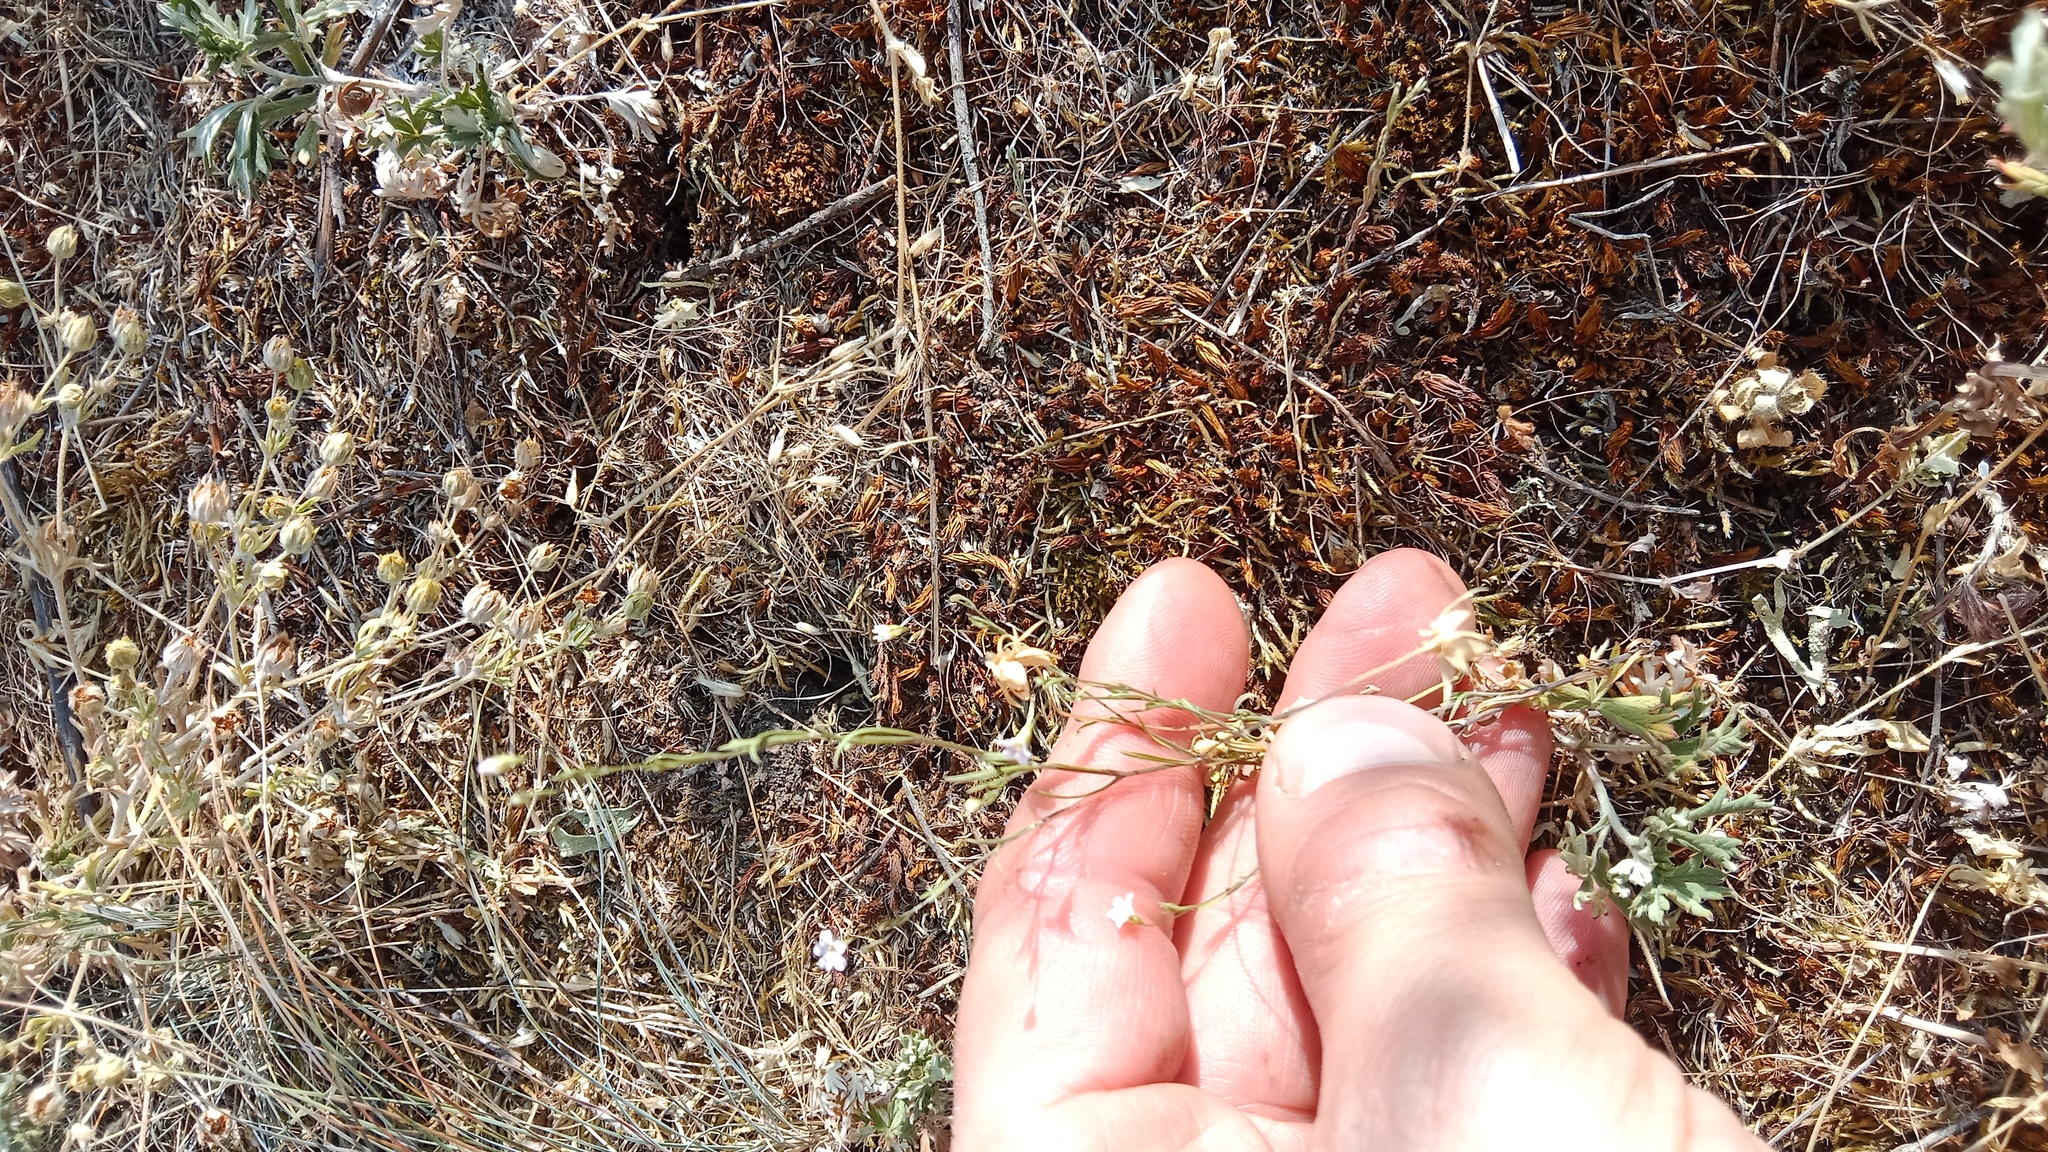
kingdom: Plantae
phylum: Tracheophyta
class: Magnoliopsida
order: Caryophyllales
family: Caryophyllaceae
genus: Psammophiliella
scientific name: Psammophiliella muralis
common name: Cushion baby's-breath
